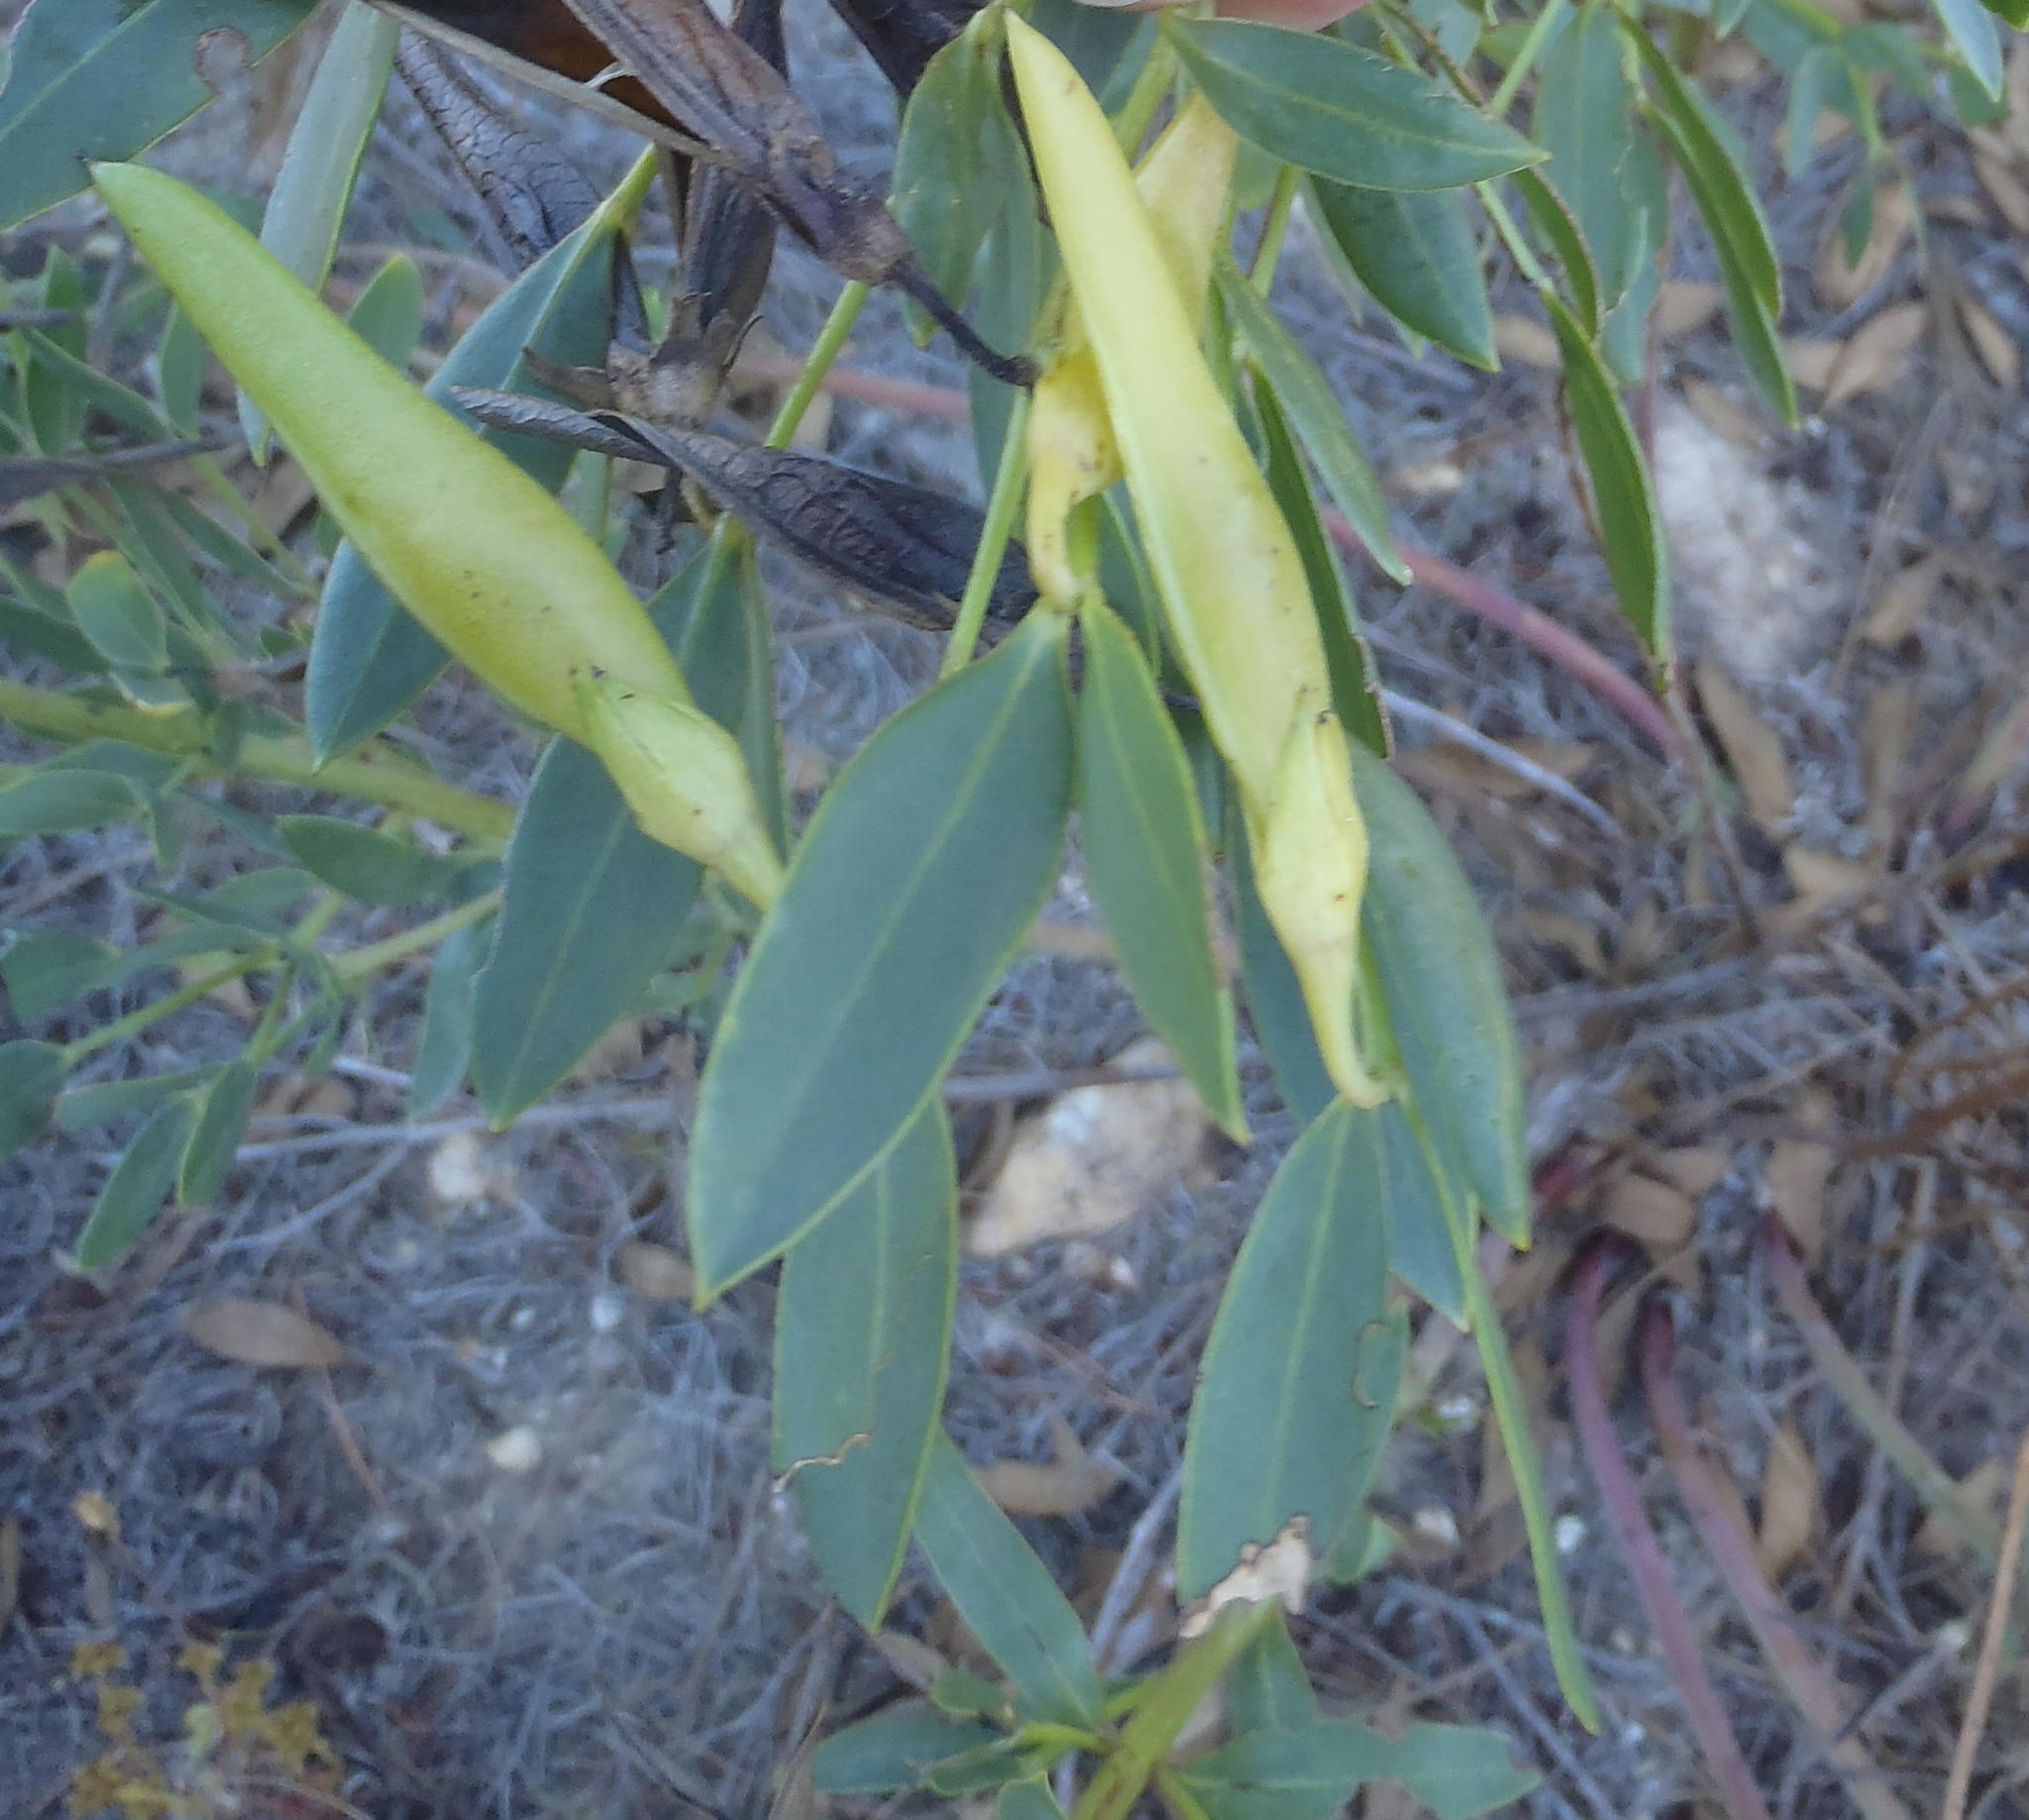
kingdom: Plantae
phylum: Tracheophyta
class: Magnoliopsida
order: Fabales
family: Fabaceae
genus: Rafnia
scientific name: Rafnia elliptica
